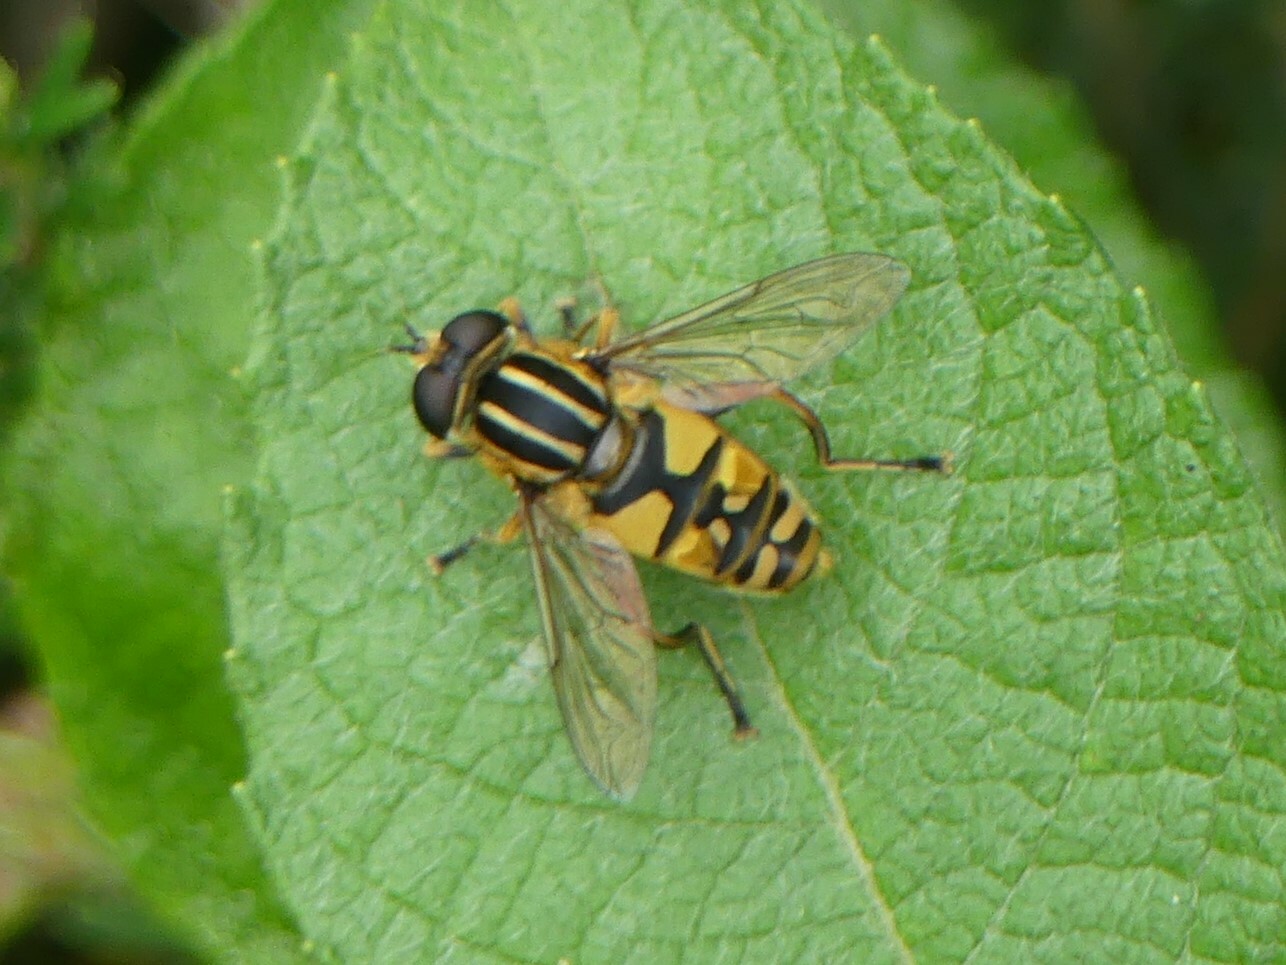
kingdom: Animalia
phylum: Arthropoda
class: Insecta
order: Diptera
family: Syrphidae
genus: Helophilus
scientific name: Helophilus pendulus
